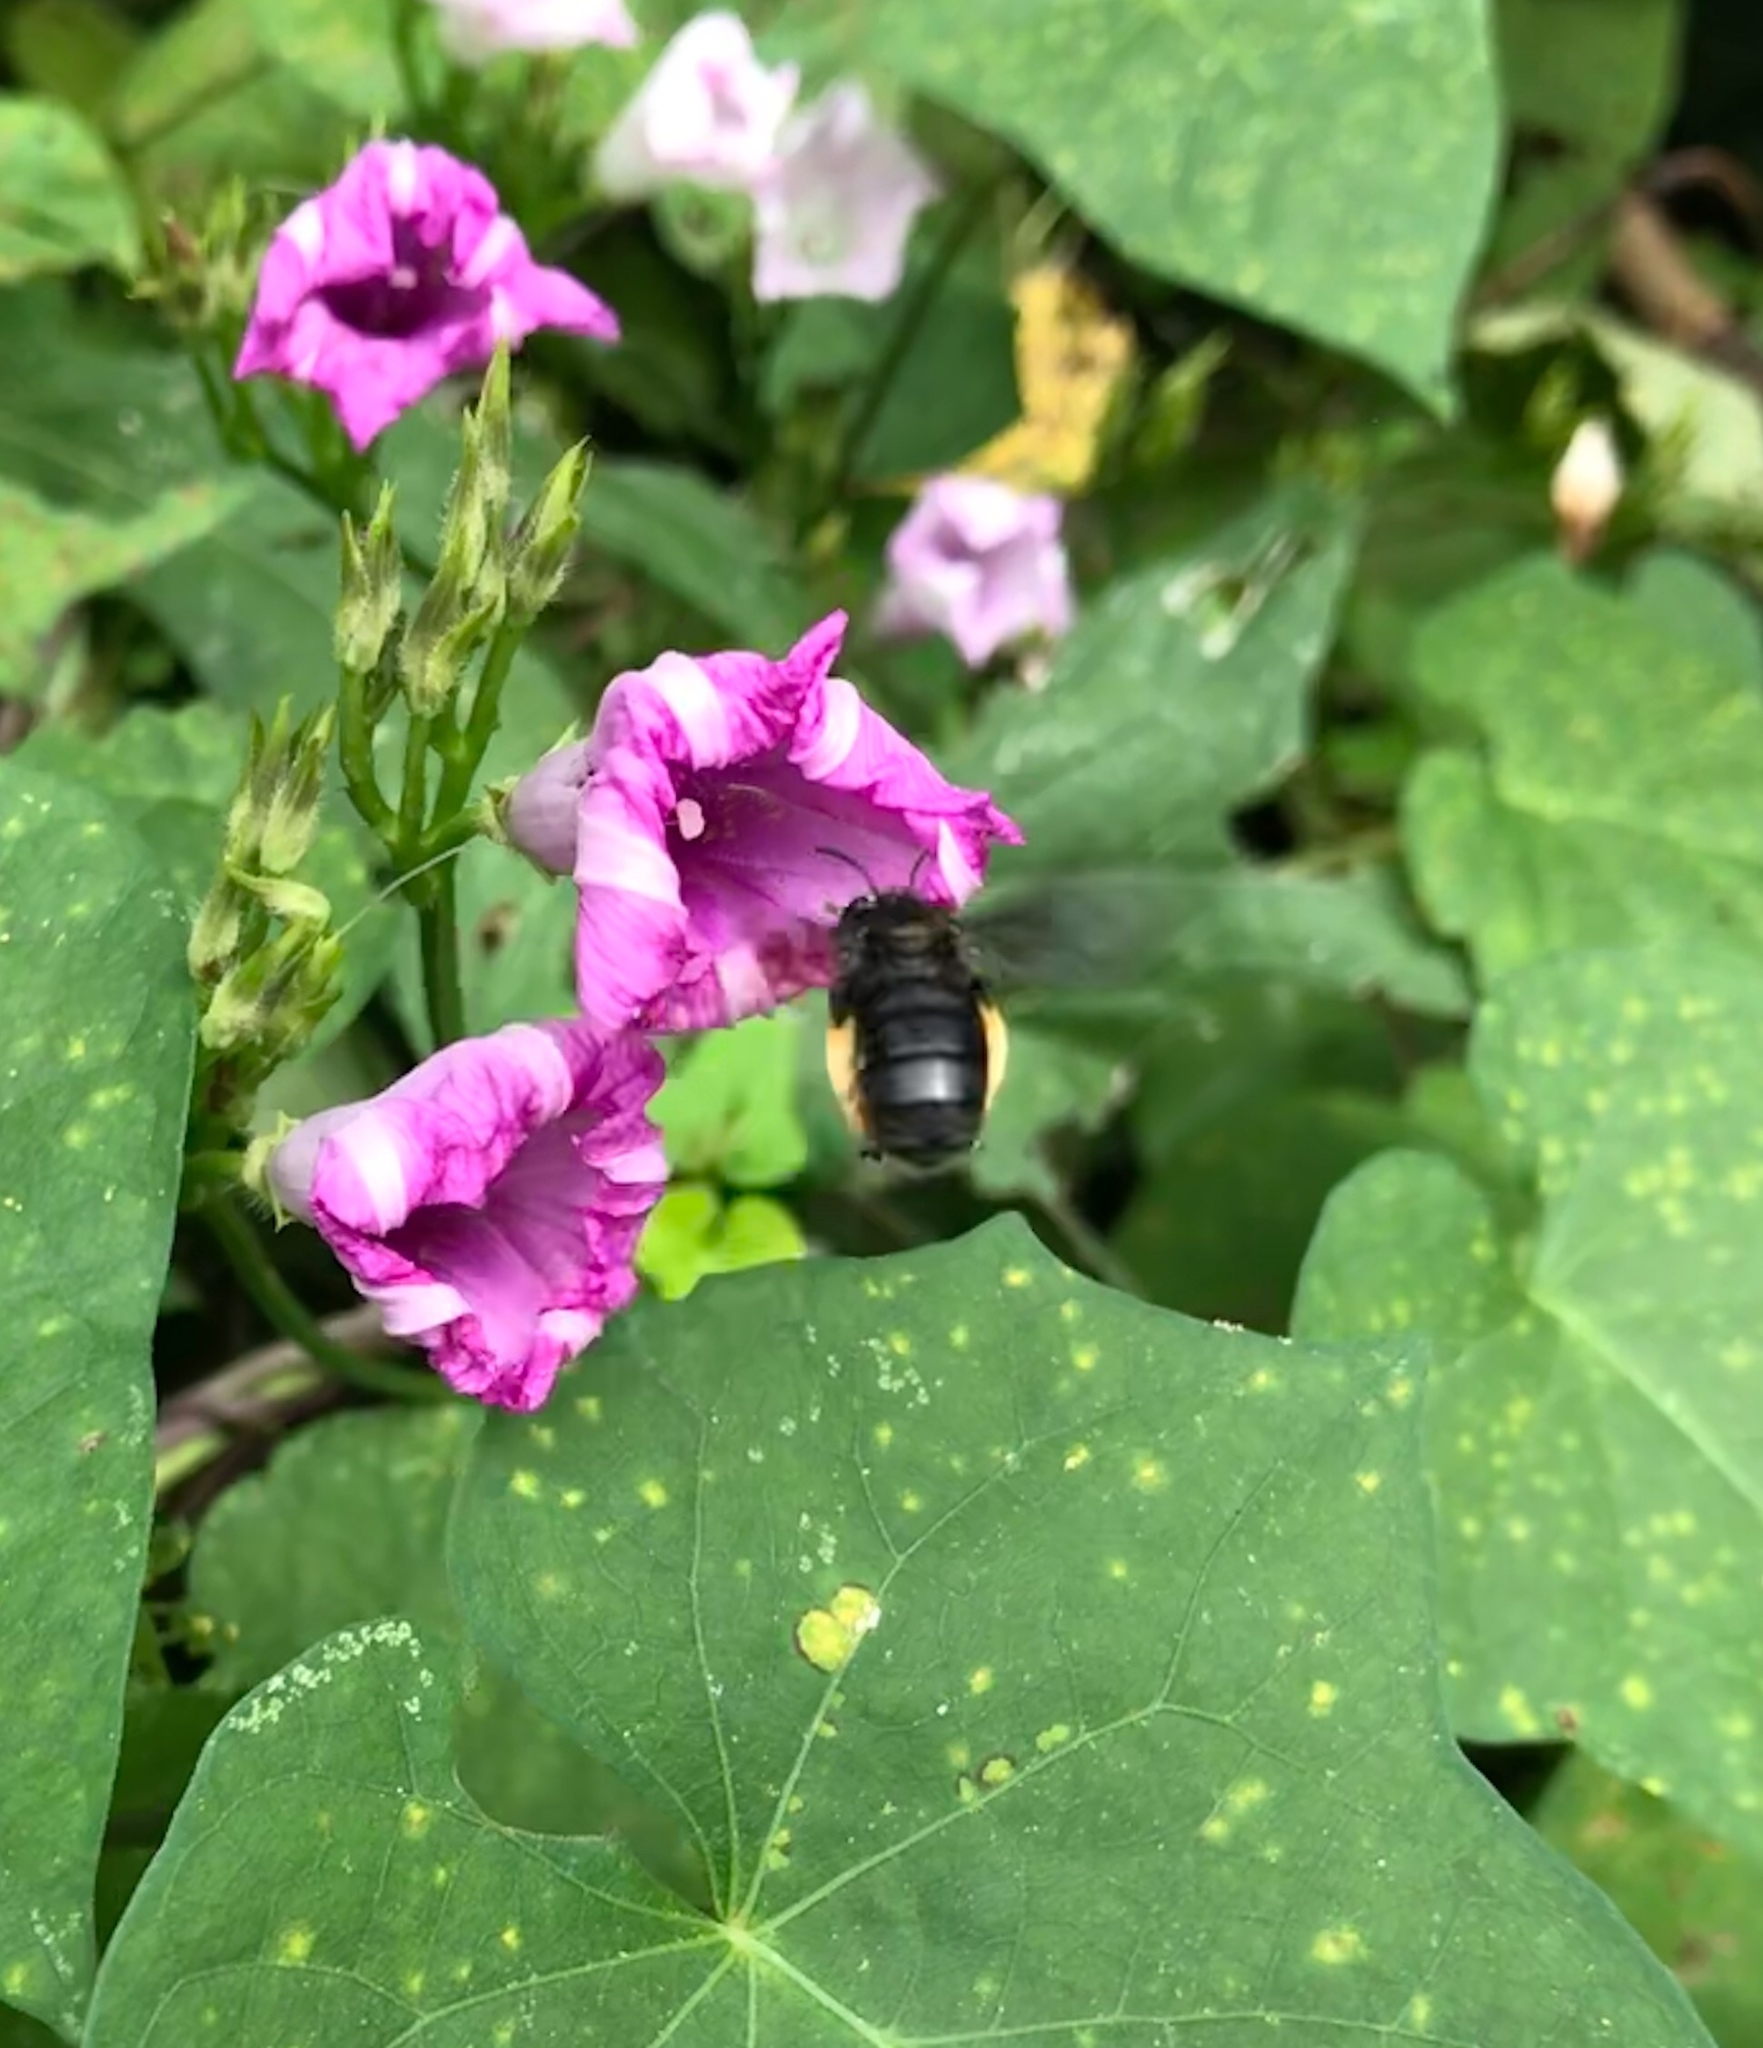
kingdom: Animalia
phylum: Arthropoda
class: Insecta
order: Hymenoptera
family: Apidae
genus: Melissodes
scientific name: Melissodes bimaculatus
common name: Two-spotted long-horned bee
